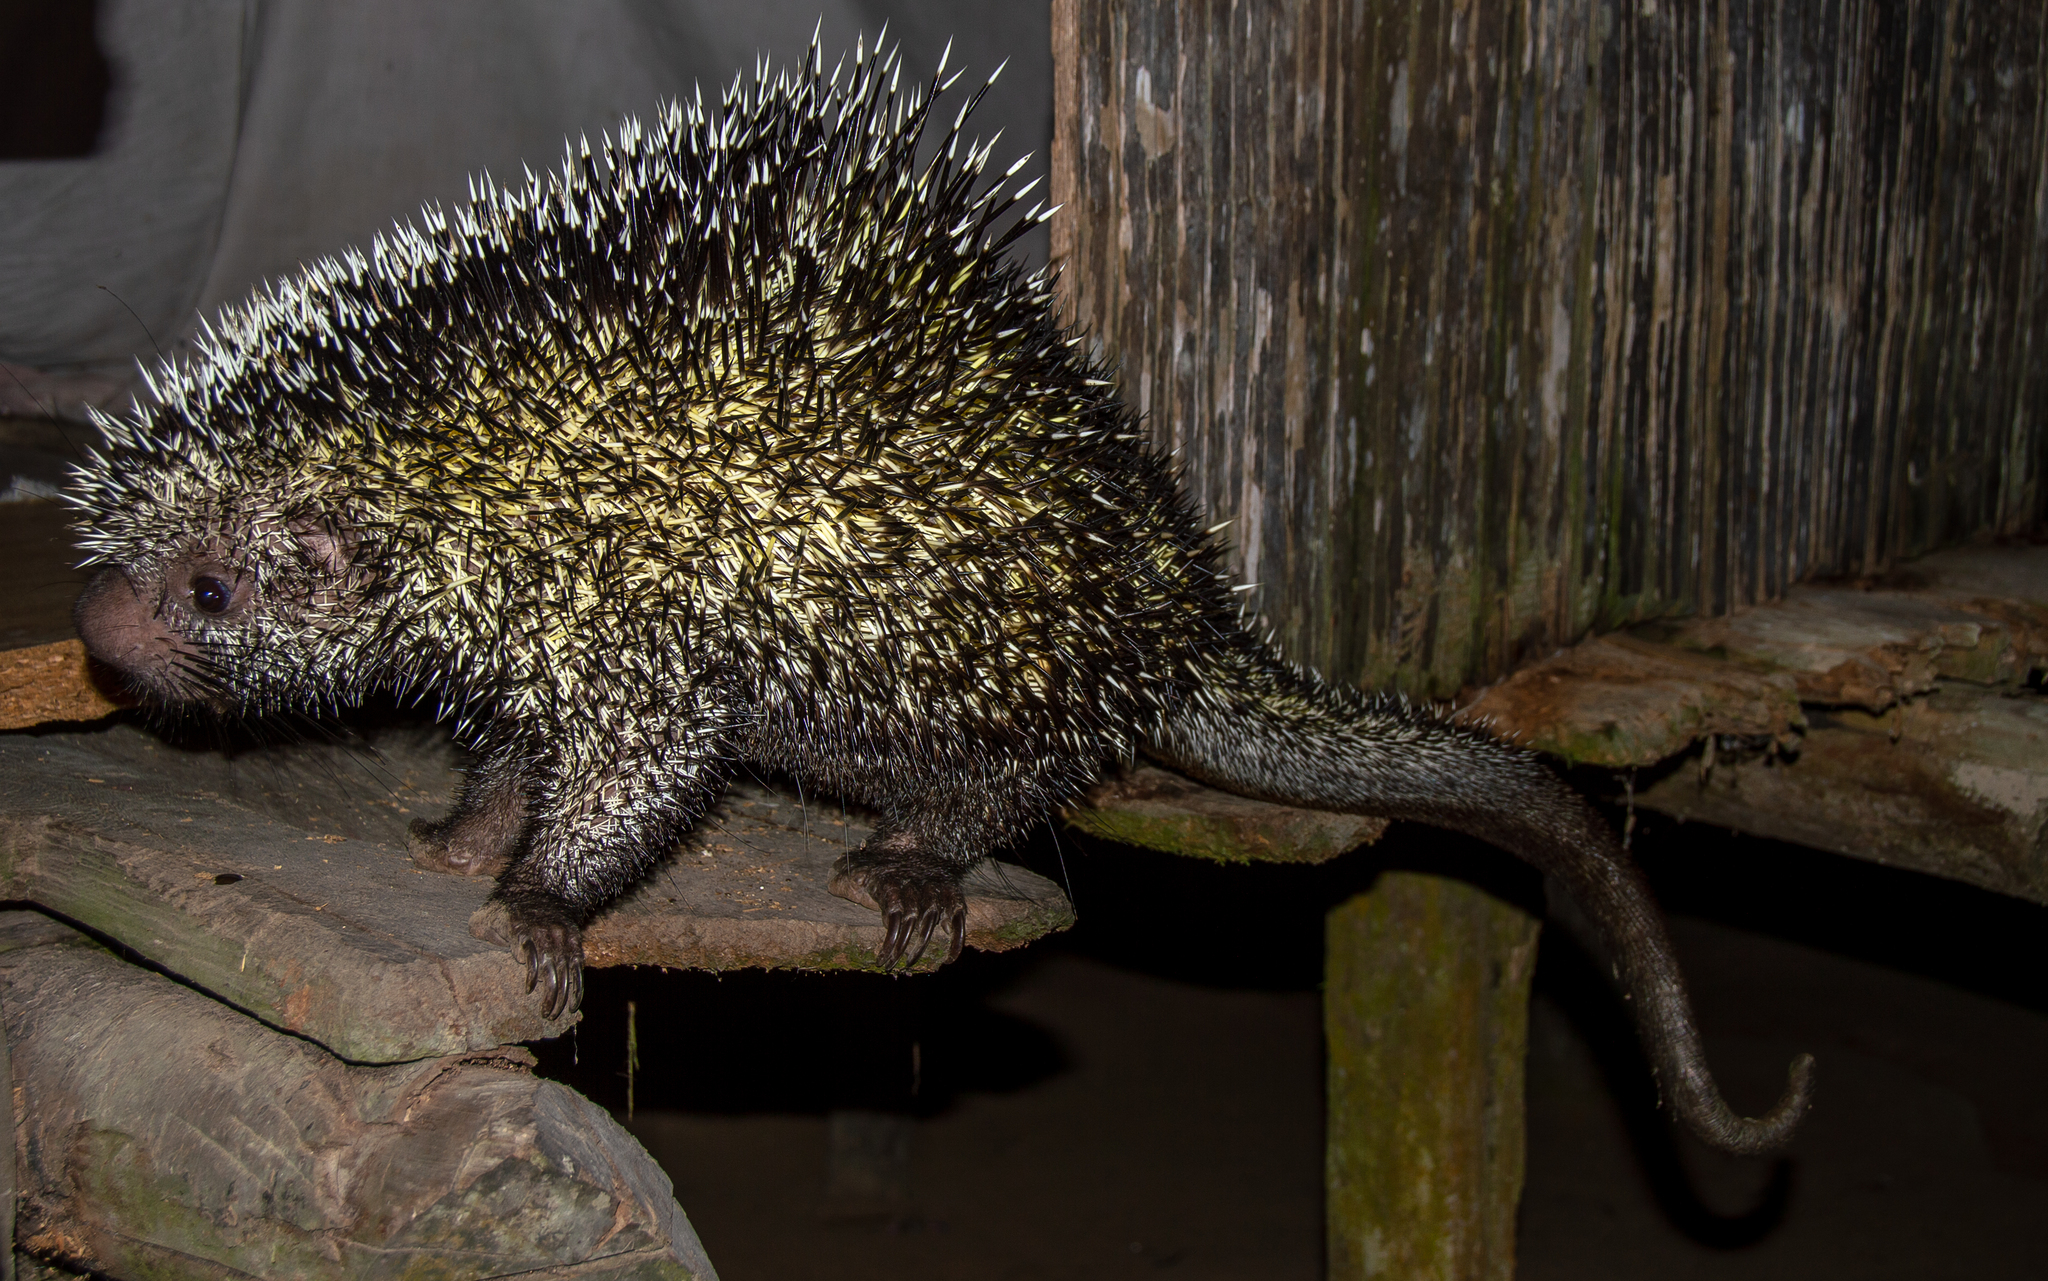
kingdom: Animalia
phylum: Chordata
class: Mammalia
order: Rodentia
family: Erethizontidae
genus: Coendou
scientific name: Coendou longicaudatus
